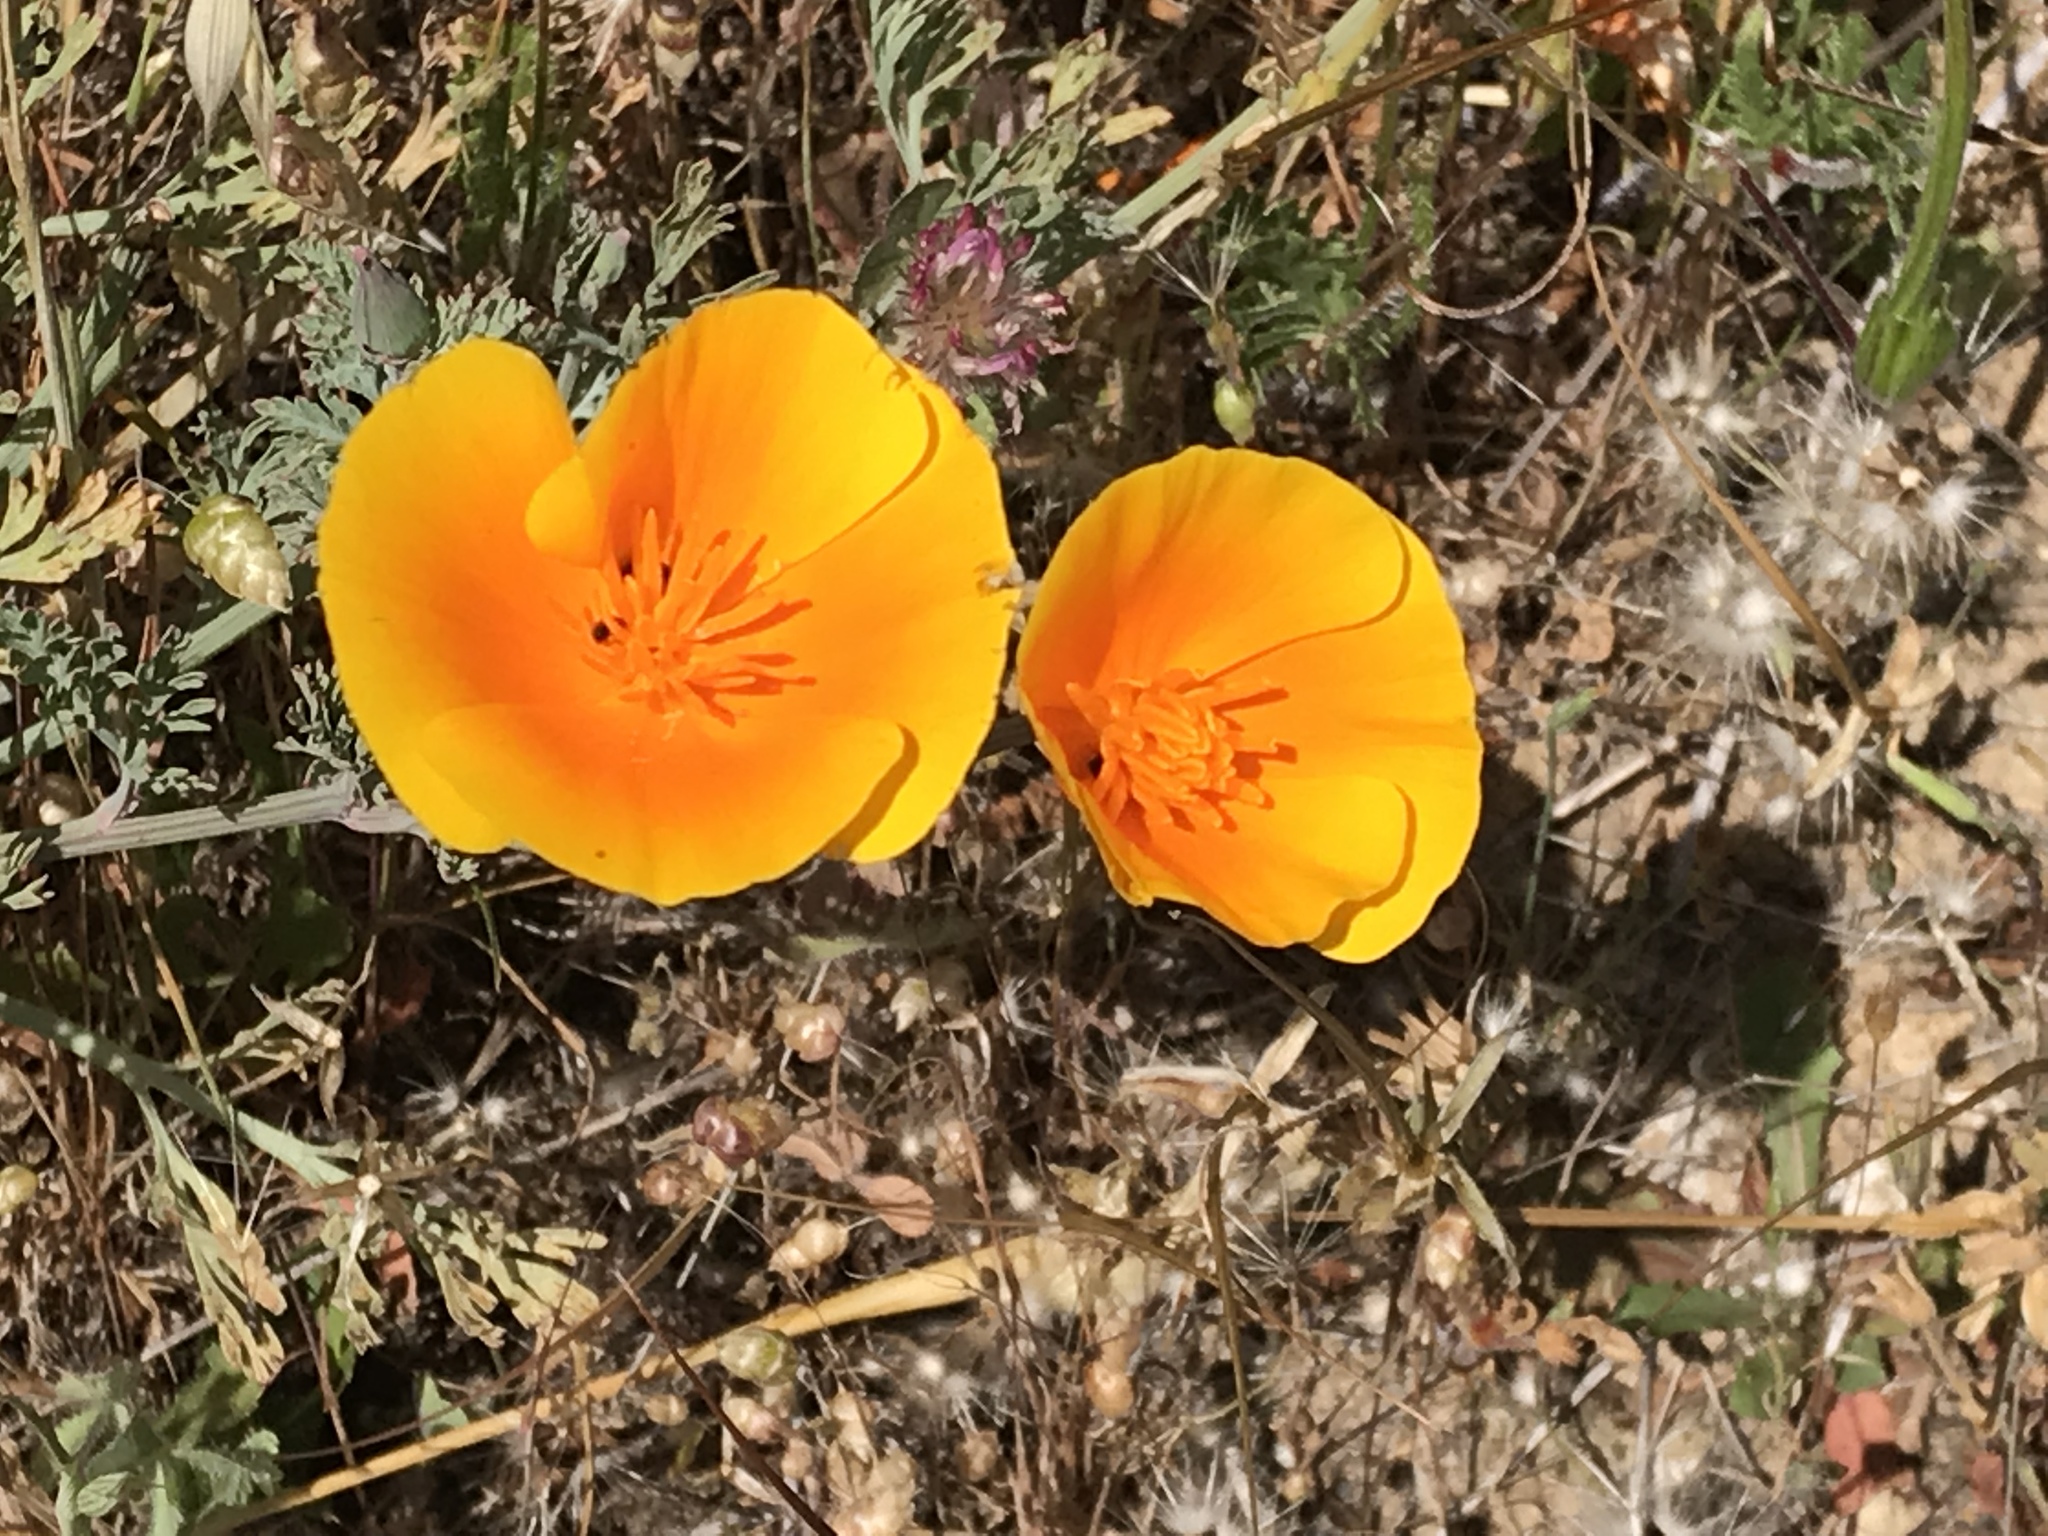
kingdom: Plantae
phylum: Tracheophyta
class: Magnoliopsida
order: Ranunculales
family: Papaveraceae
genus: Eschscholzia
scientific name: Eschscholzia californica
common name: California poppy
